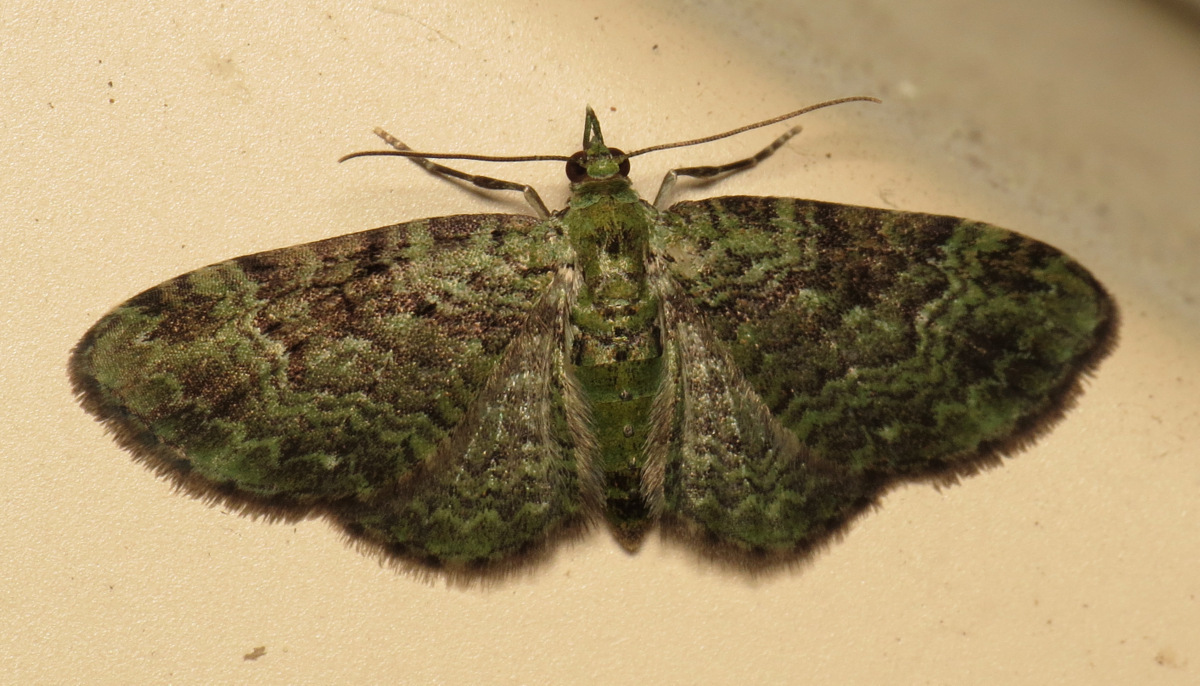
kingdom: Animalia
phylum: Arthropoda
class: Insecta
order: Lepidoptera
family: Geometridae
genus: Pasiphila
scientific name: Pasiphila rectangulata
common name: Green pug
